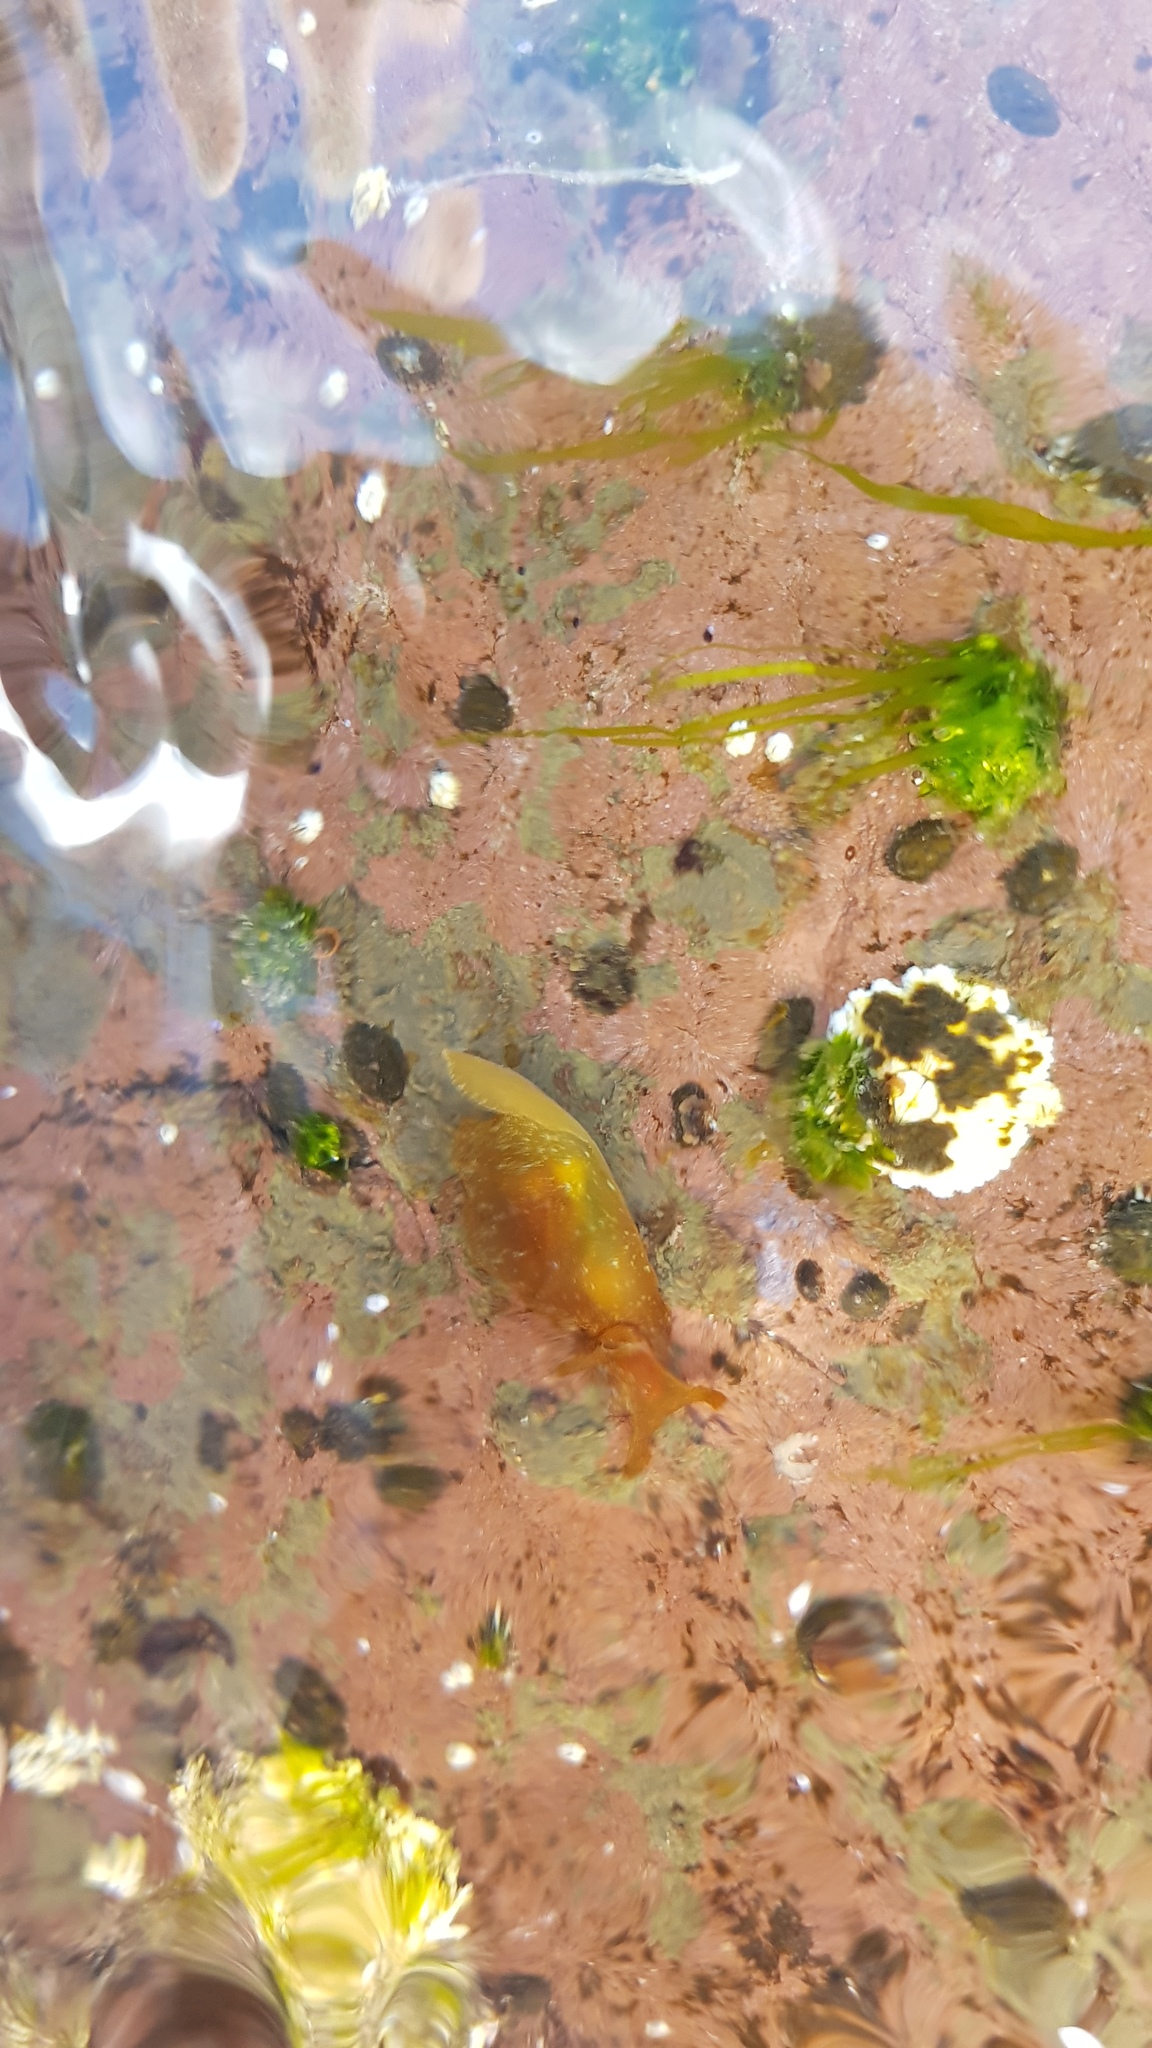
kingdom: Animalia
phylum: Mollusca
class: Gastropoda
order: Aplysiida
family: Aplysiidae
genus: Aplysia
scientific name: Aplysia juliana
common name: Walking sea hare
